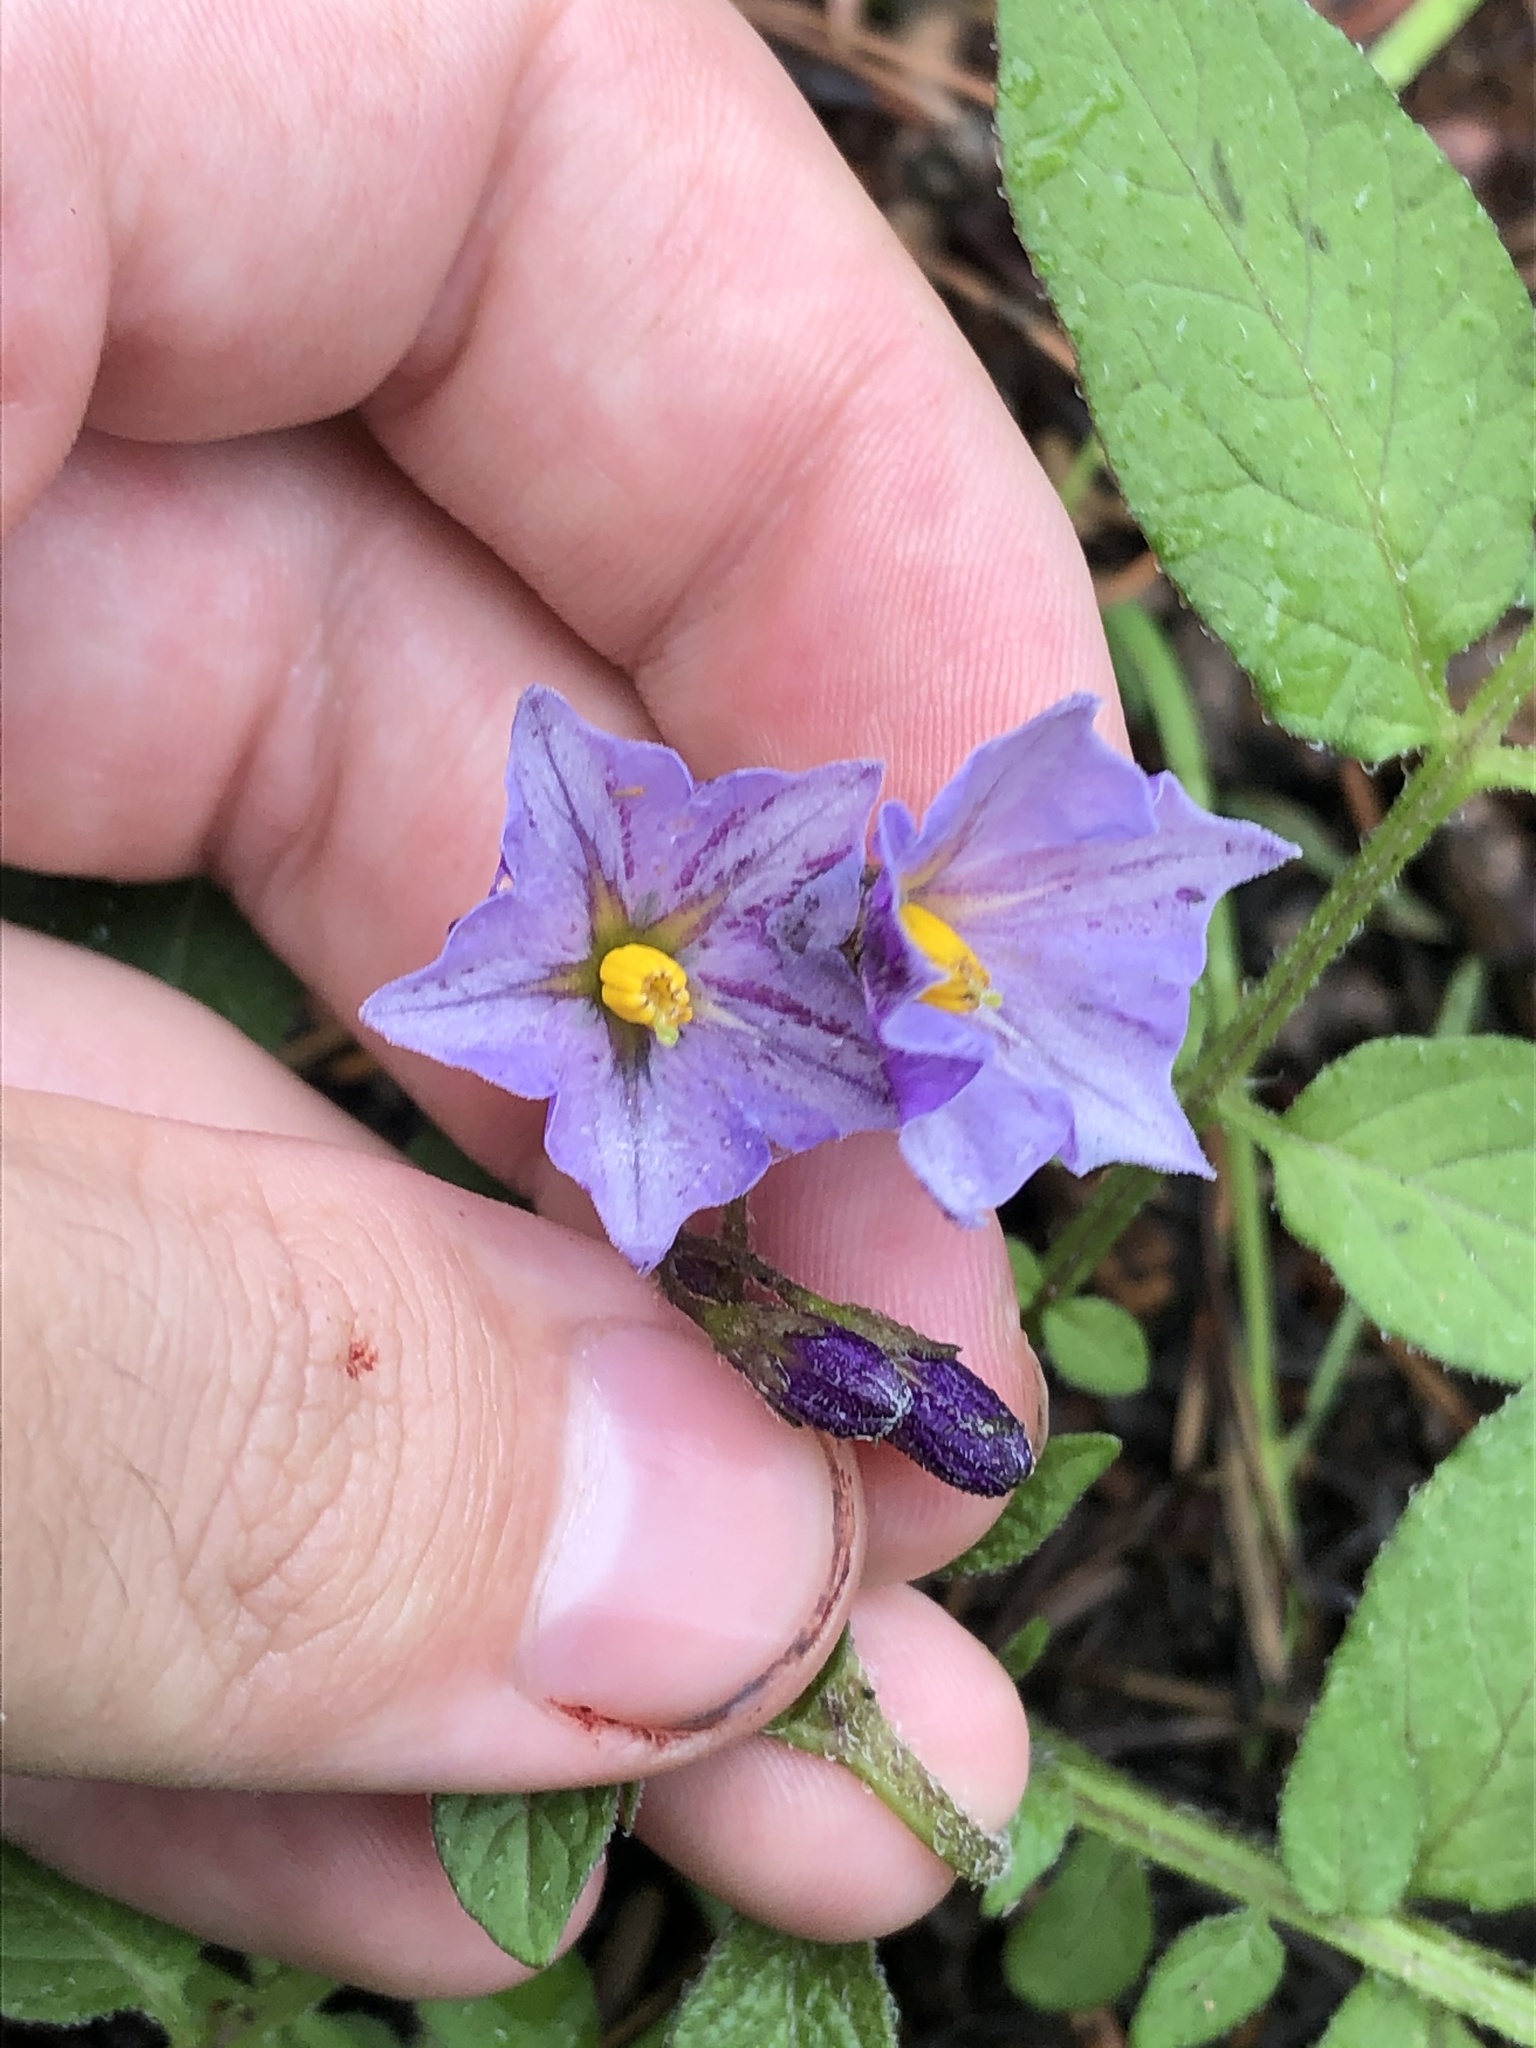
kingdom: Plantae
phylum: Tracheophyta
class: Magnoliopsida
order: Solanales
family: Solanaceae
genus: Solanum
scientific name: Solanum stoloniferum
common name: Fendler's nighshade
